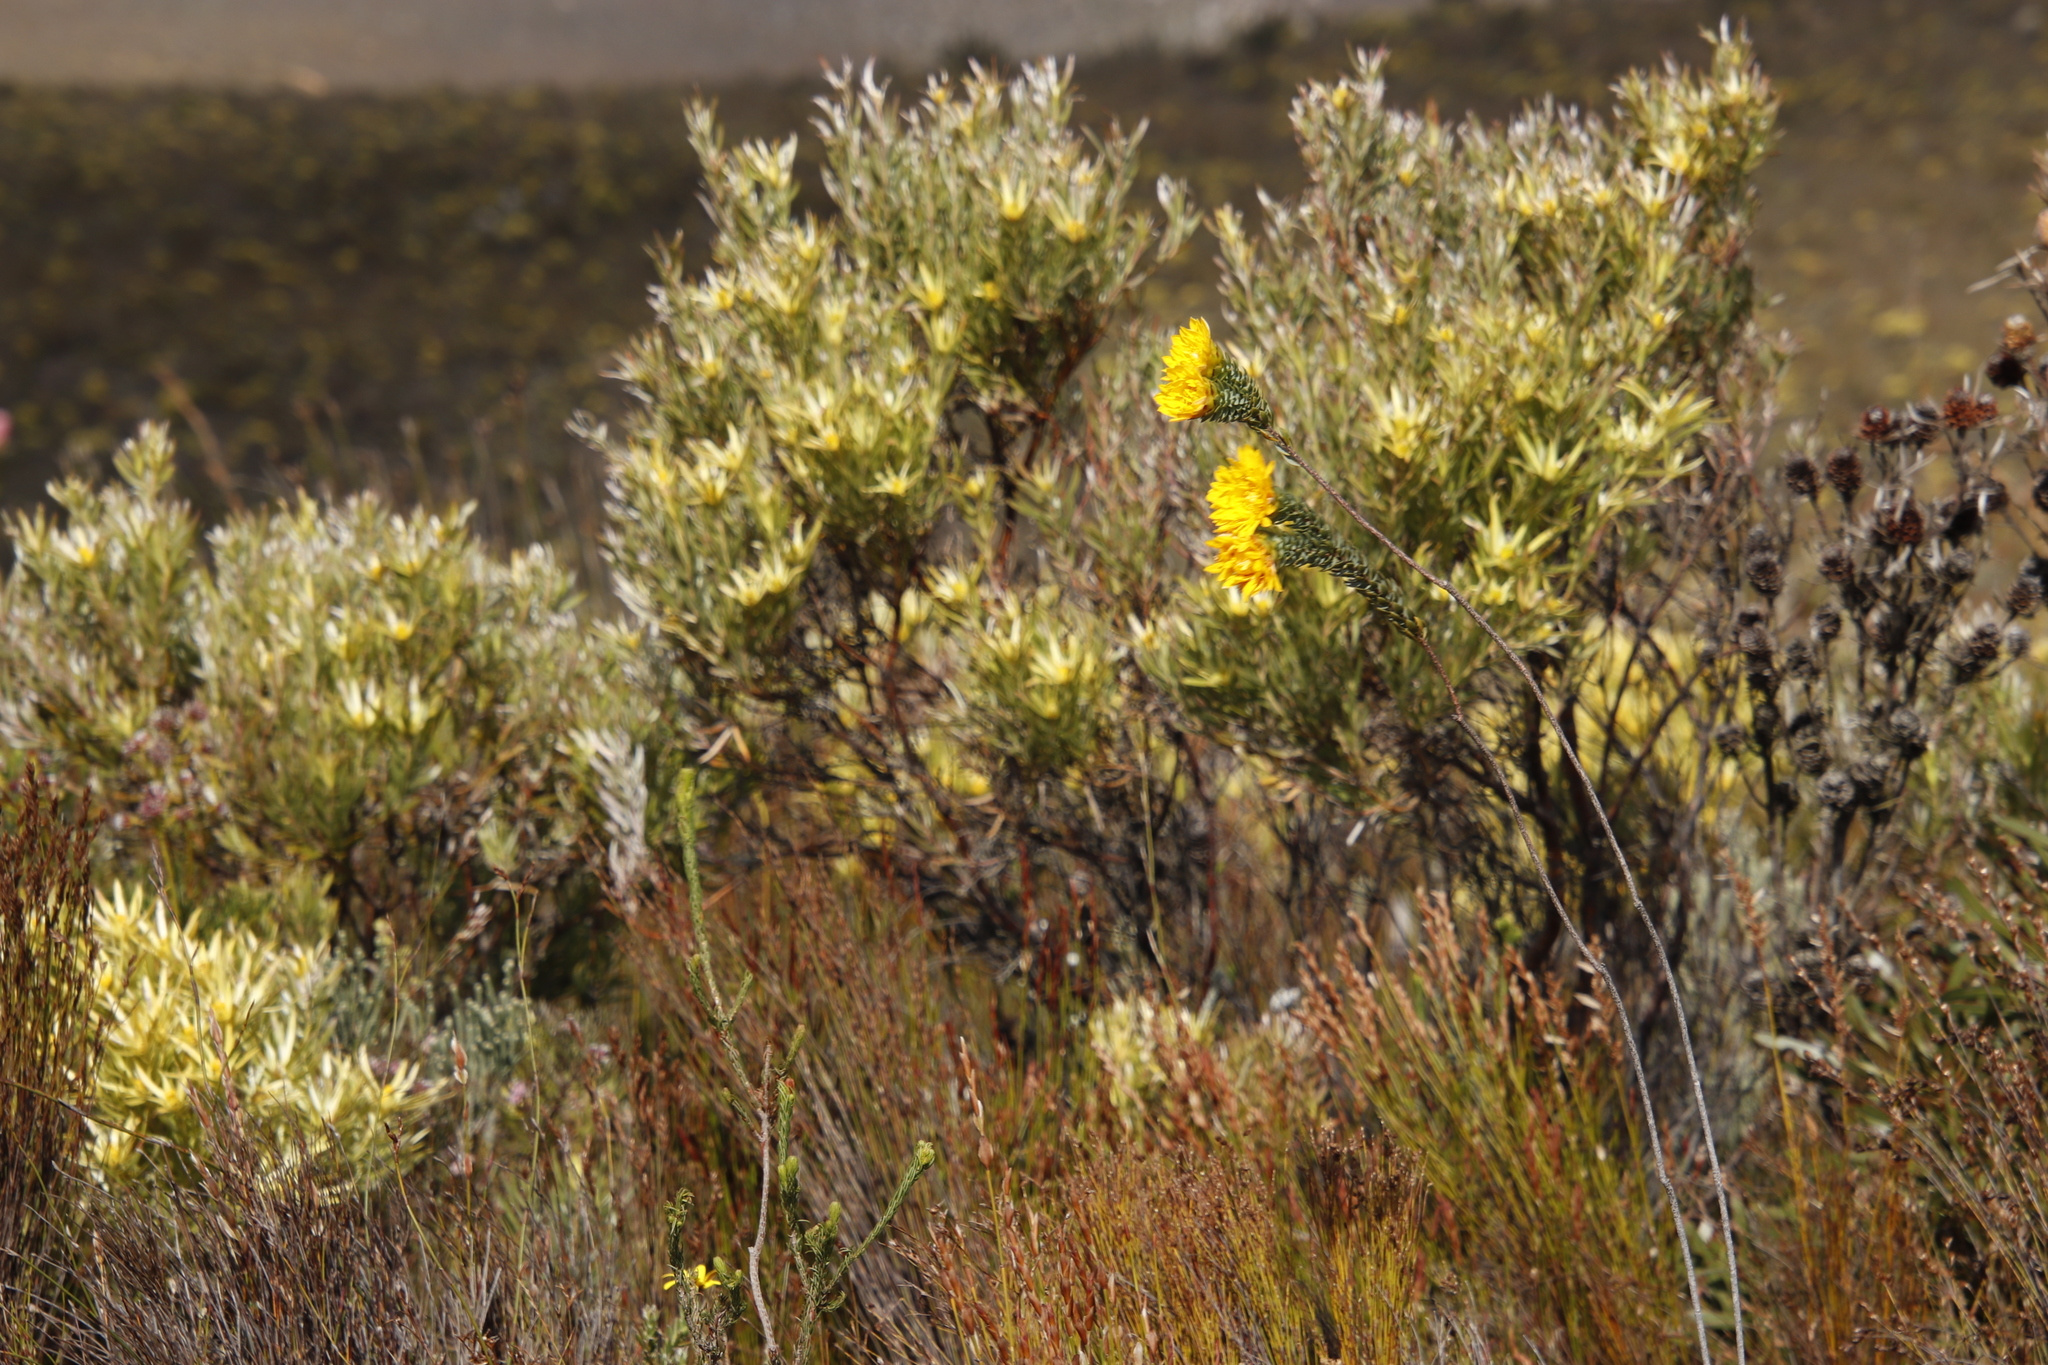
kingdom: Plantae
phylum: Tracheophyta
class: Magnoliopsida
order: Proteales
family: Proteaceae
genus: Leucadendron
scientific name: Leucadendron xanthoconus
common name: Sickle-leaf conebush
